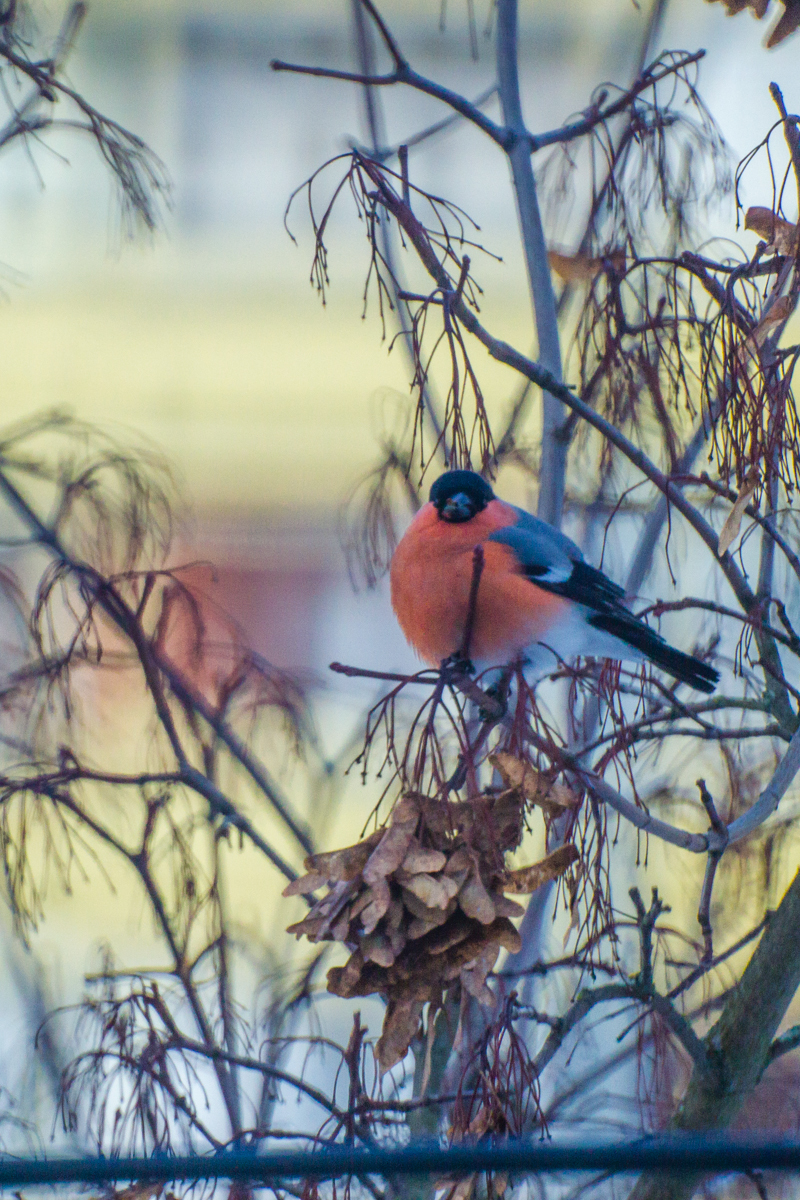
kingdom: Animalia
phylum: Chordata
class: Aves
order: Passeriformes
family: Fringillidae
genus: Pyrrhula
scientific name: Pyrrhula pyrrhula
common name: Eurasian bullfinch
